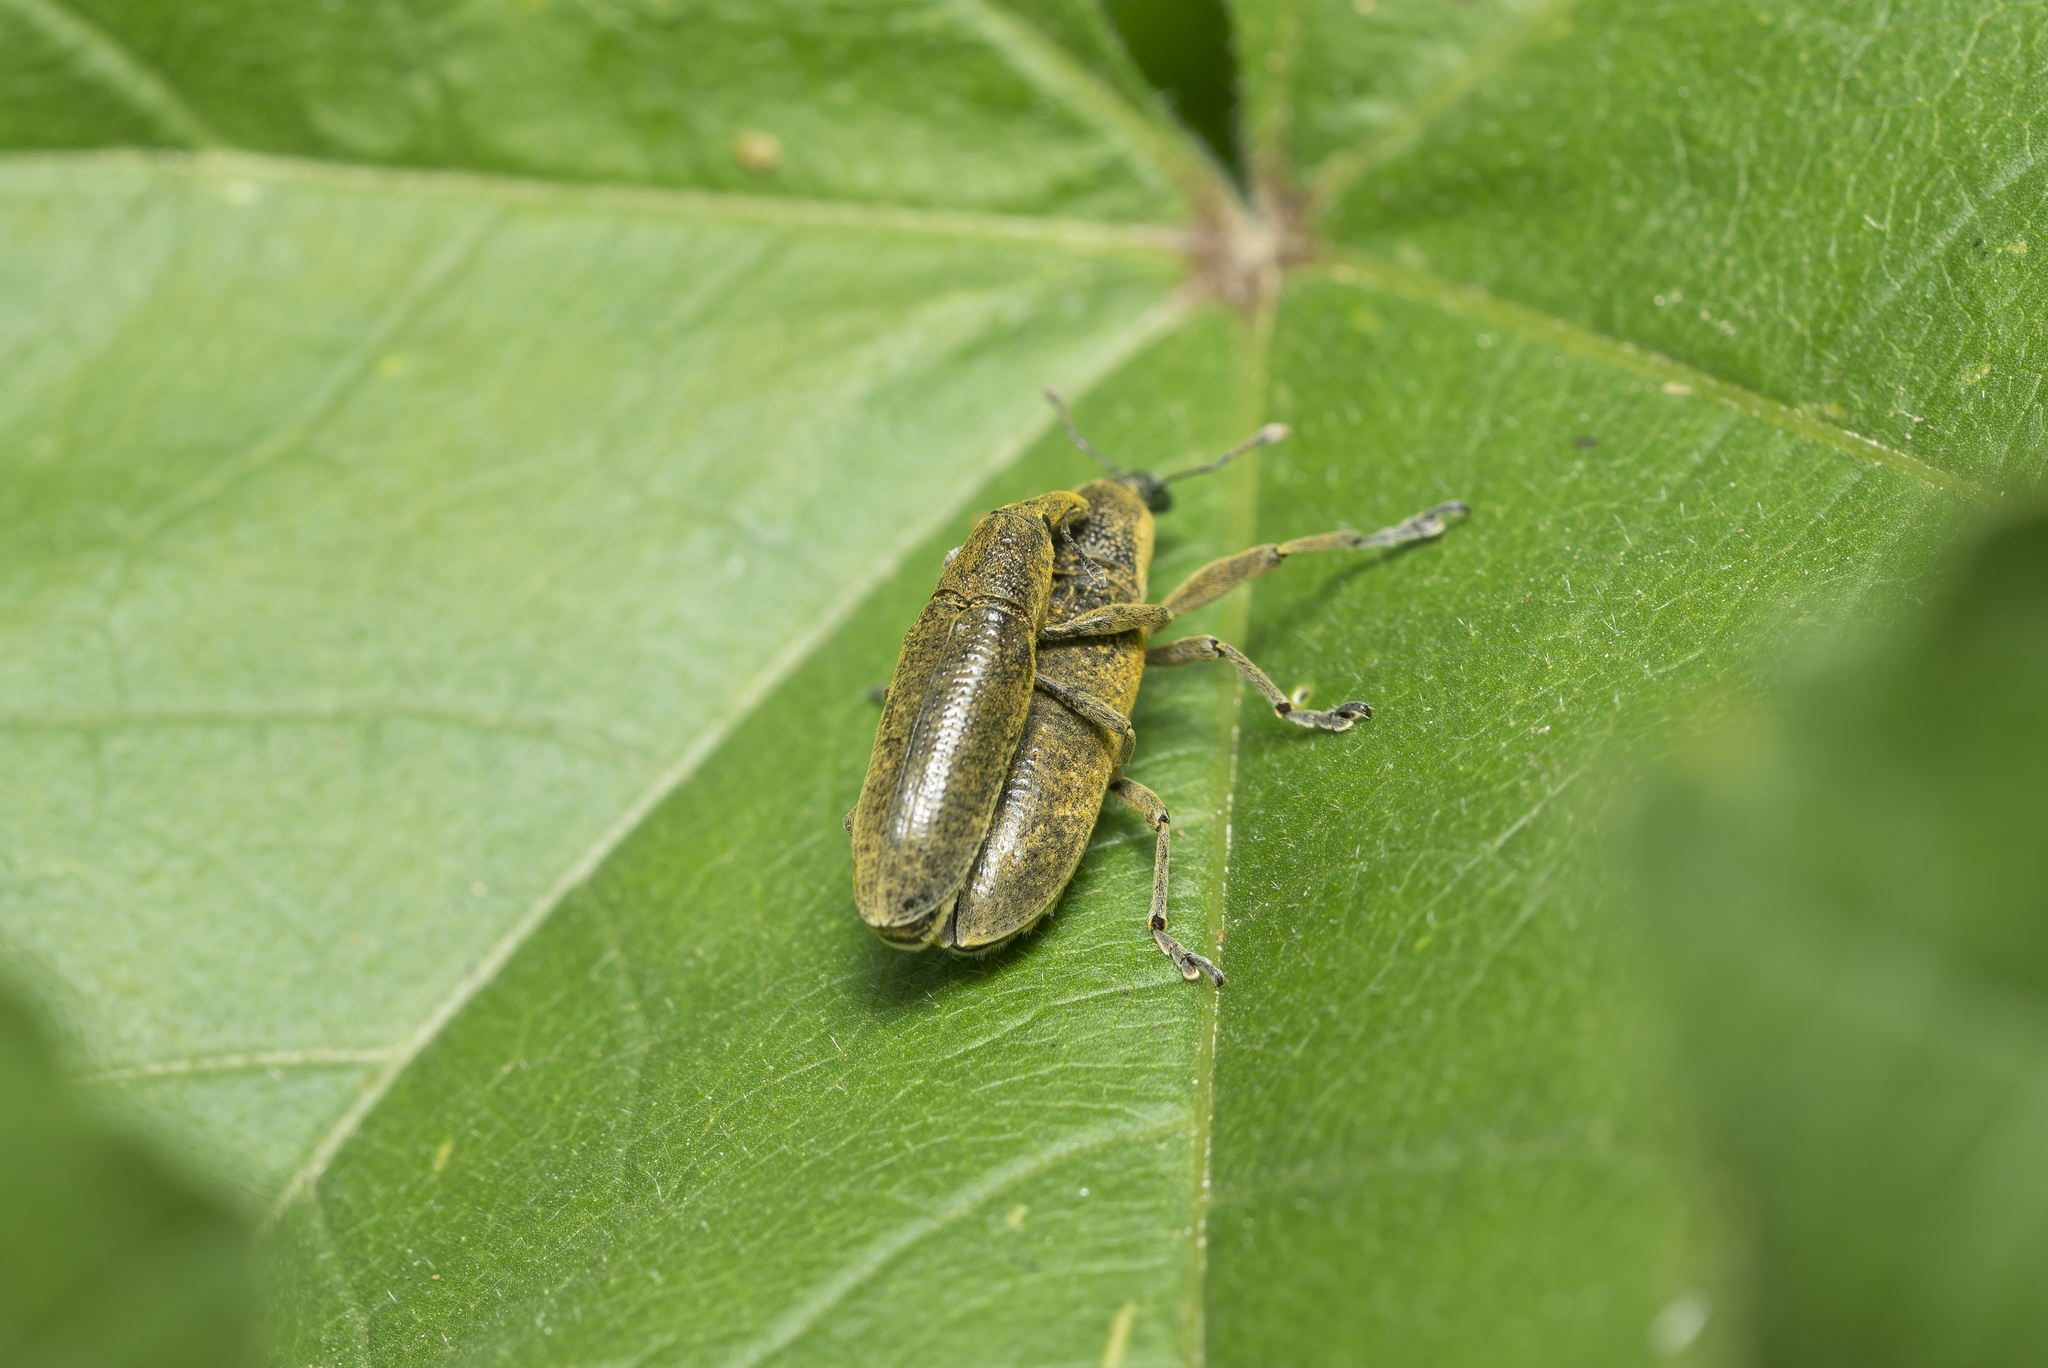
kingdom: Animalia
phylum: Arthropoda
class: Insecta
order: Coleoptera
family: Curculionidae
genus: Lixus
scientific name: Lixus pulverulentus
